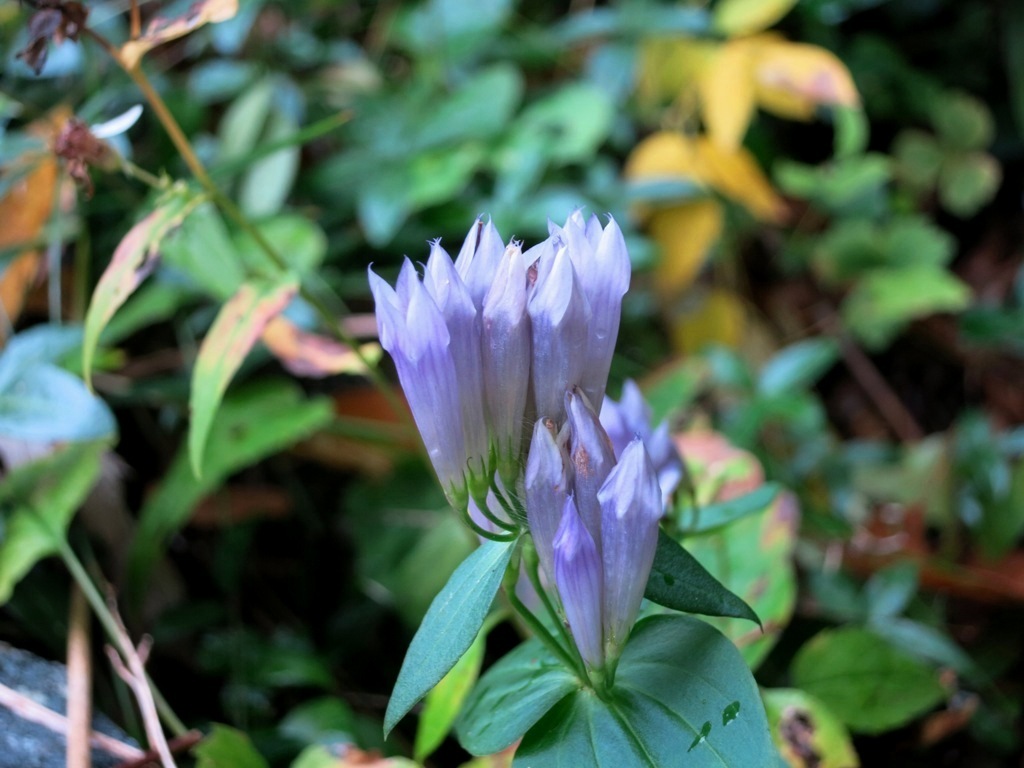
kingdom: Plantae
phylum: Tracheophyta
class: Magnoliopsida
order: Gentianales
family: Gentianaceae
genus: Gentianella
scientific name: Gentianella quinquefolia
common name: Agueweed
